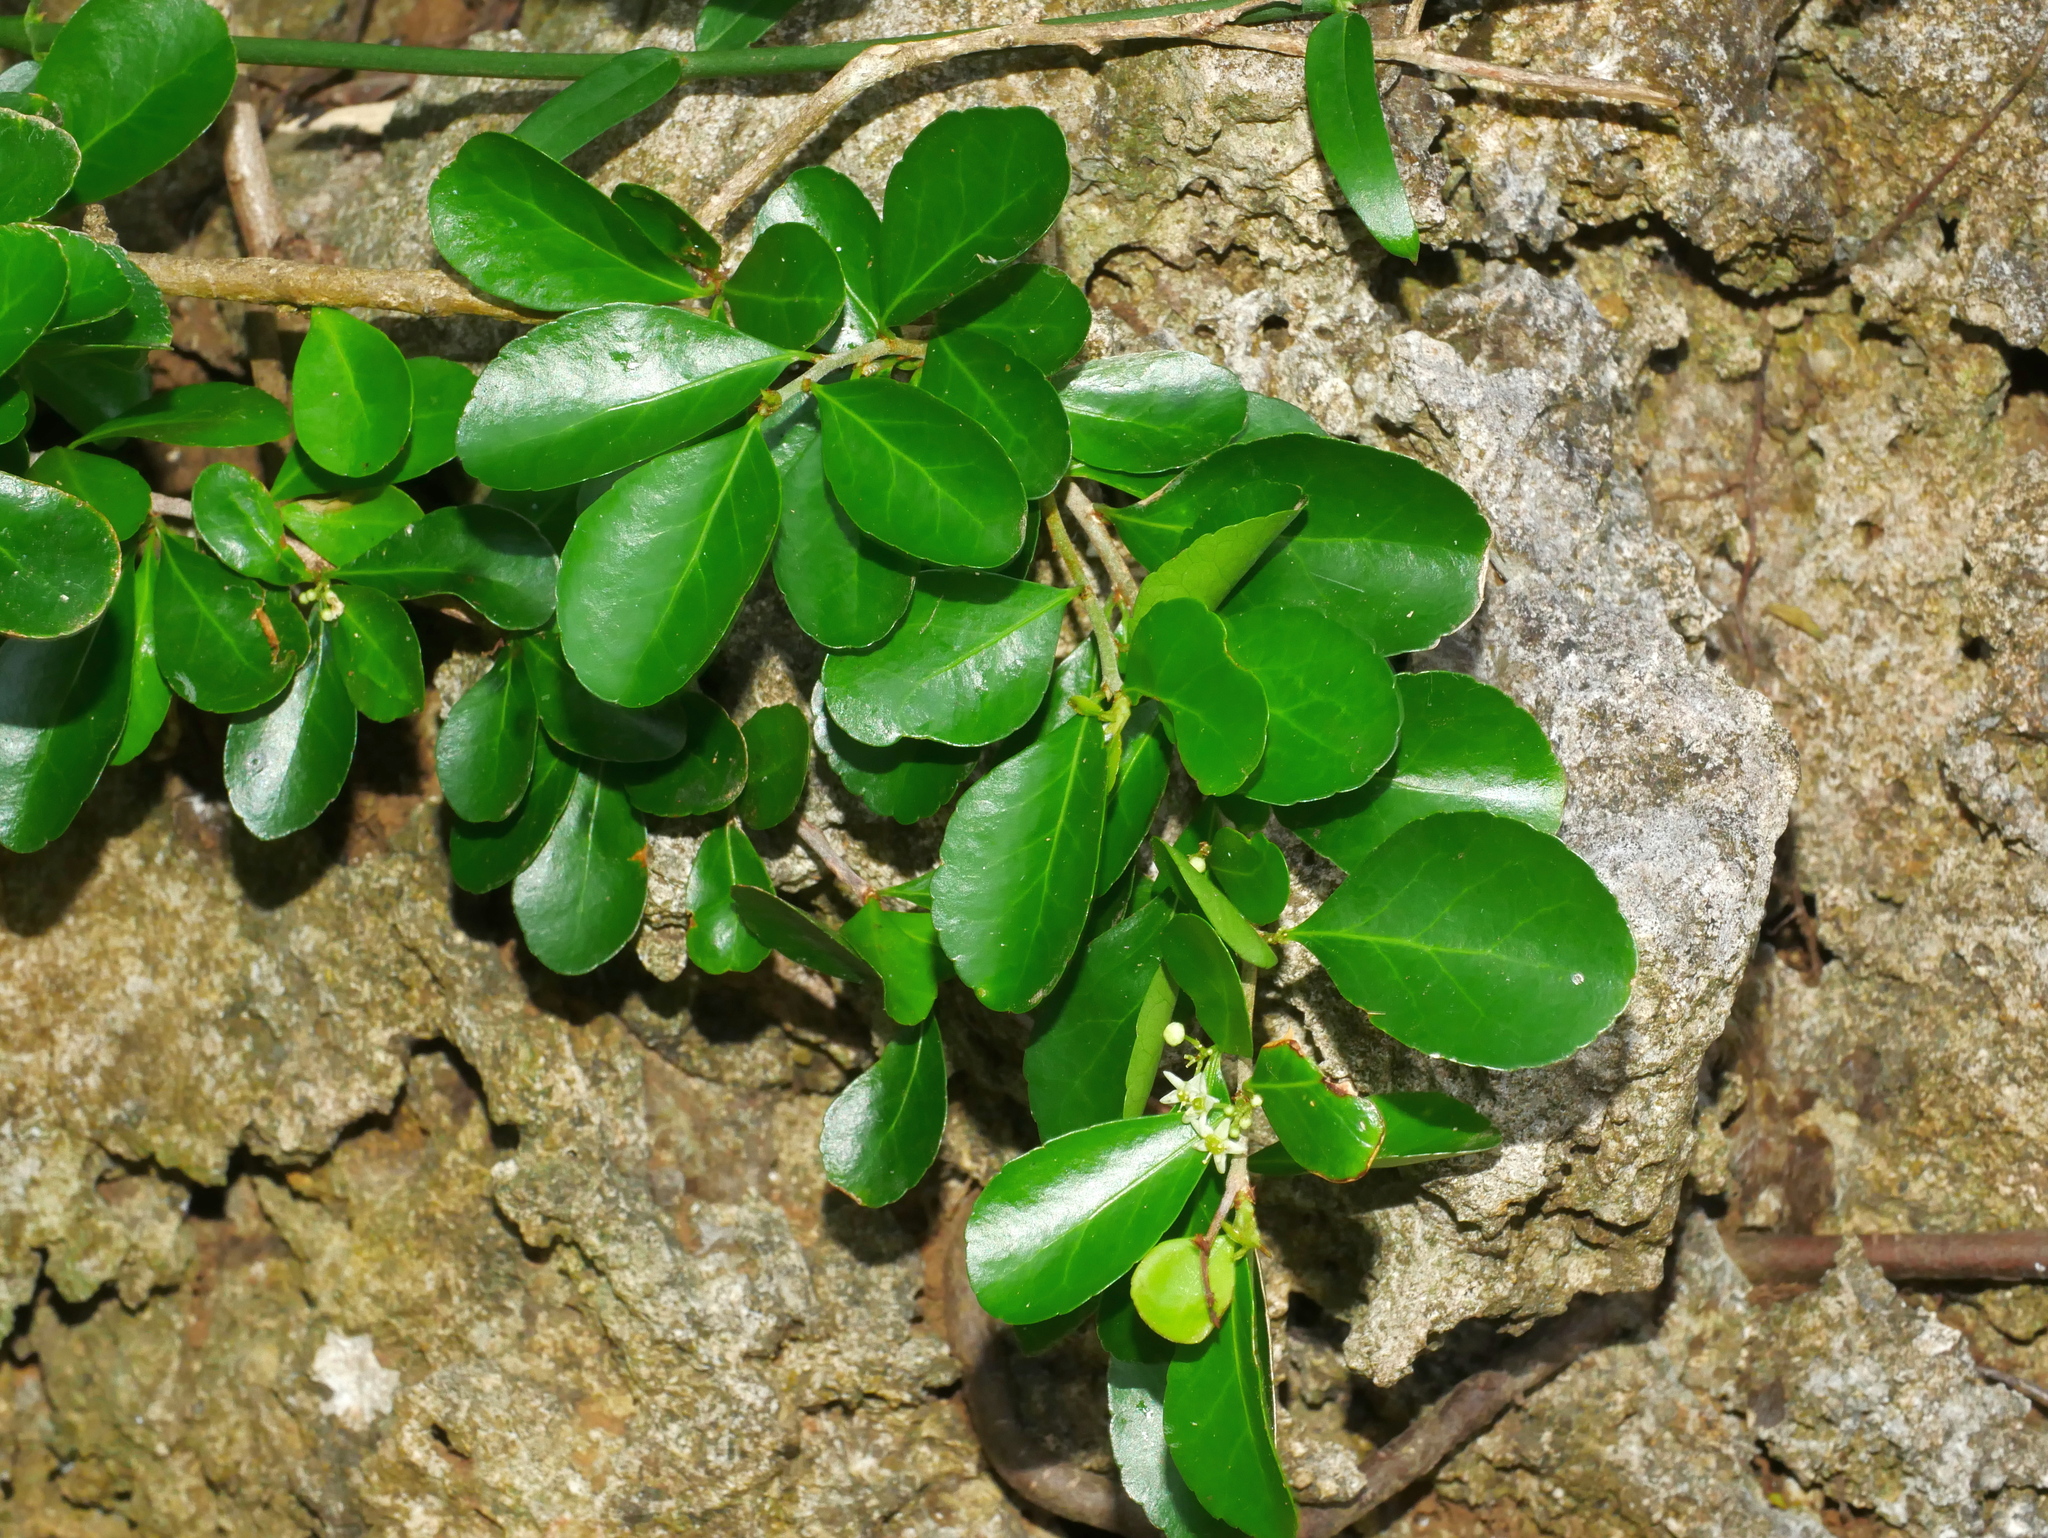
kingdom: Plantae
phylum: Tracheophyta
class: Magnoliopsida
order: Celastrales
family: Celastraceae
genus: Gymnosporia
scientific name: Gymnosporia diversifolia
